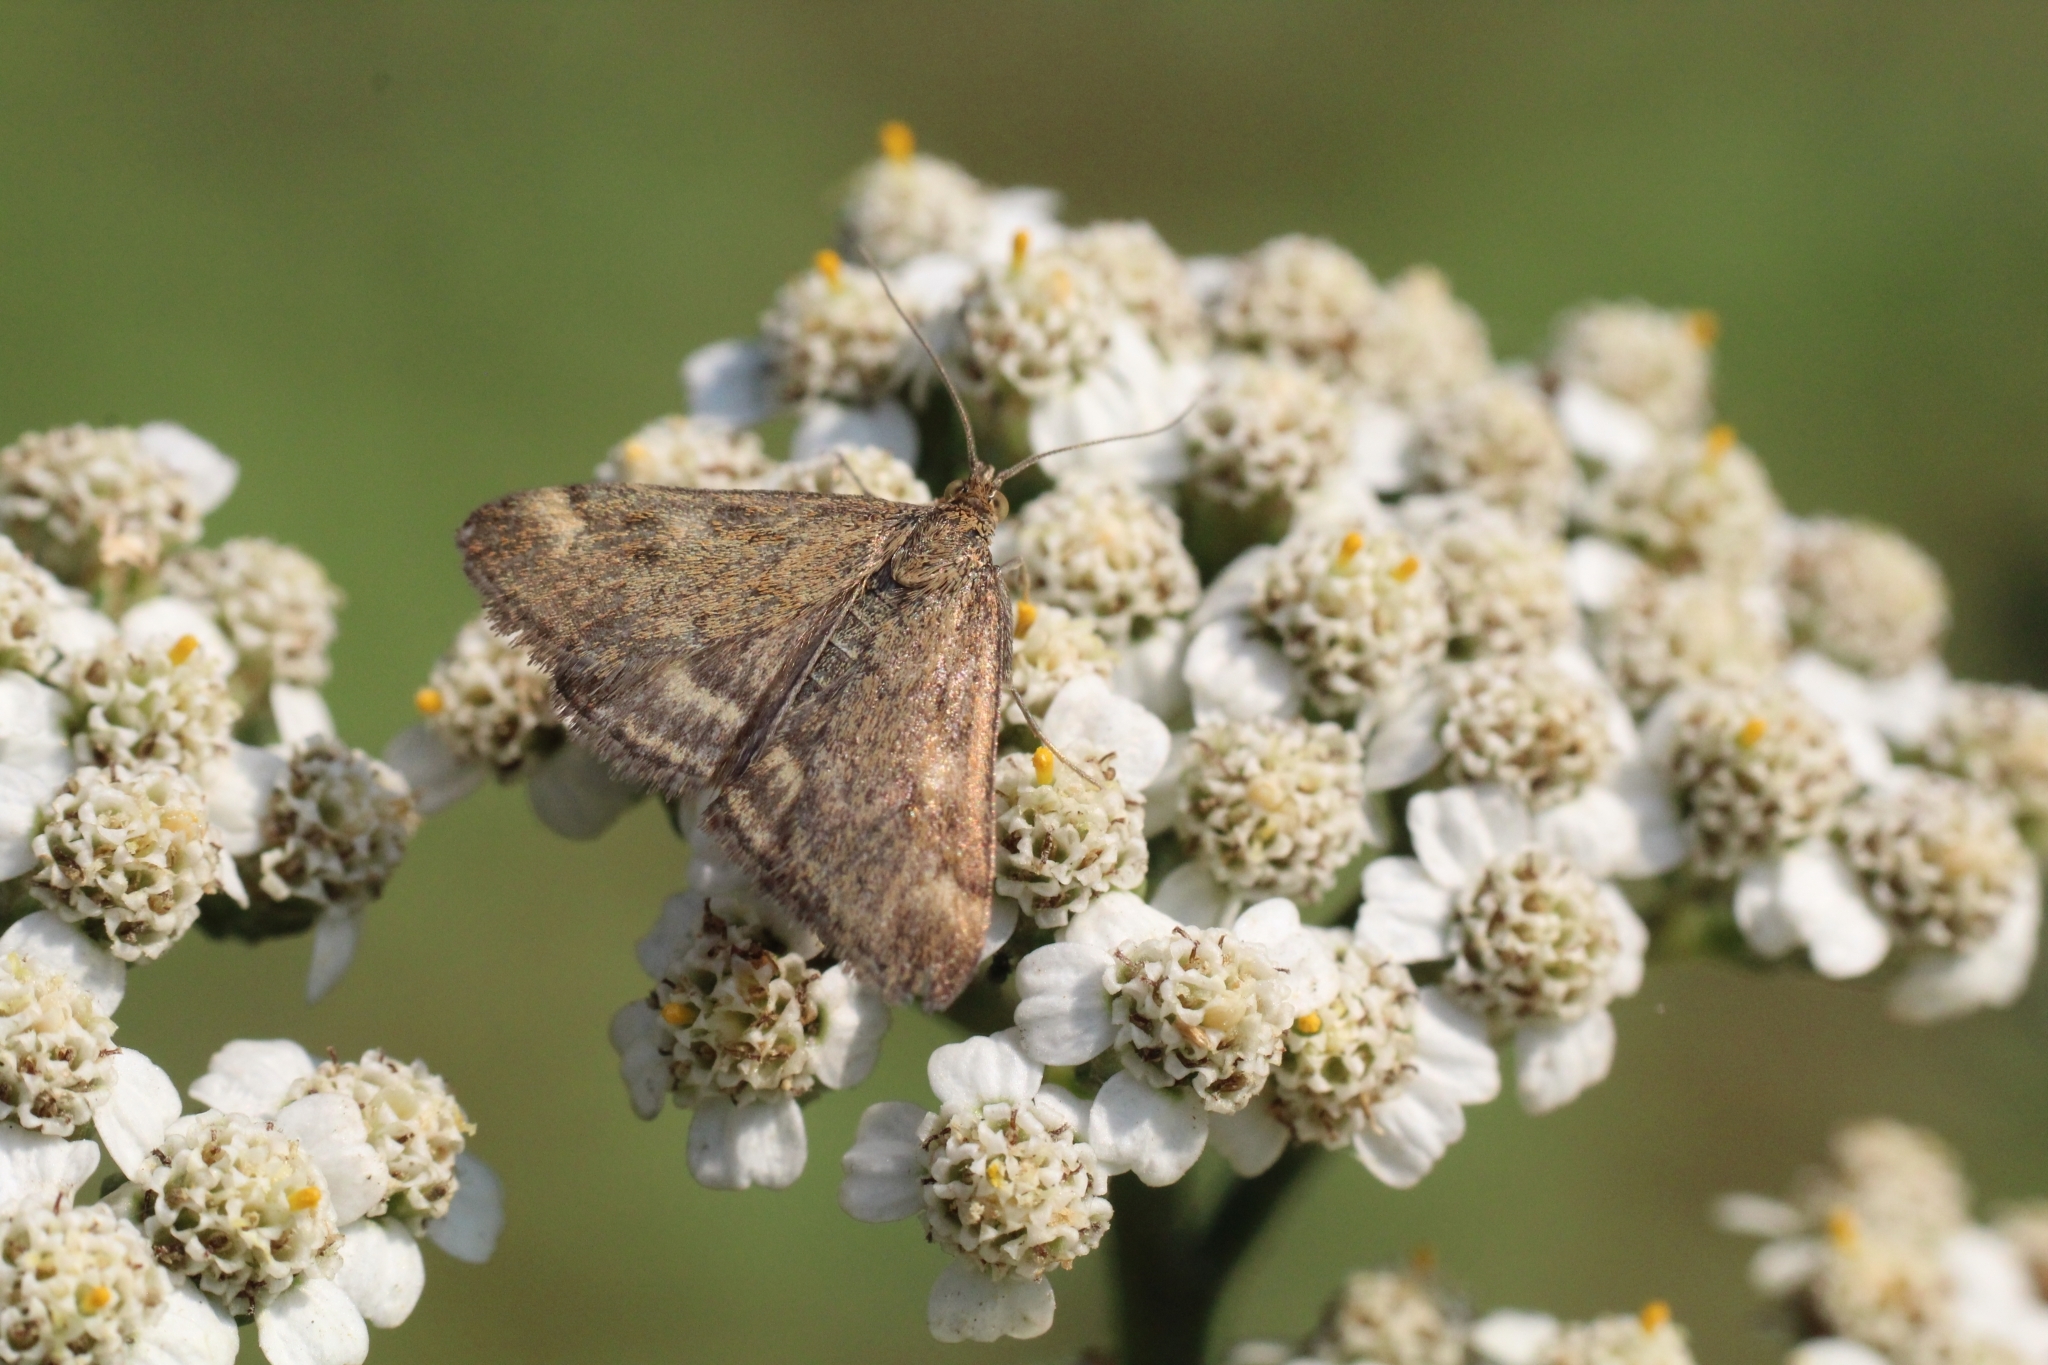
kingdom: Animalia
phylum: Arthropoda
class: Insecta
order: Lepidoptera
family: Crambidae
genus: Pyrausta
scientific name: Pyrausta despicata
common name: Straw-barred pearl
